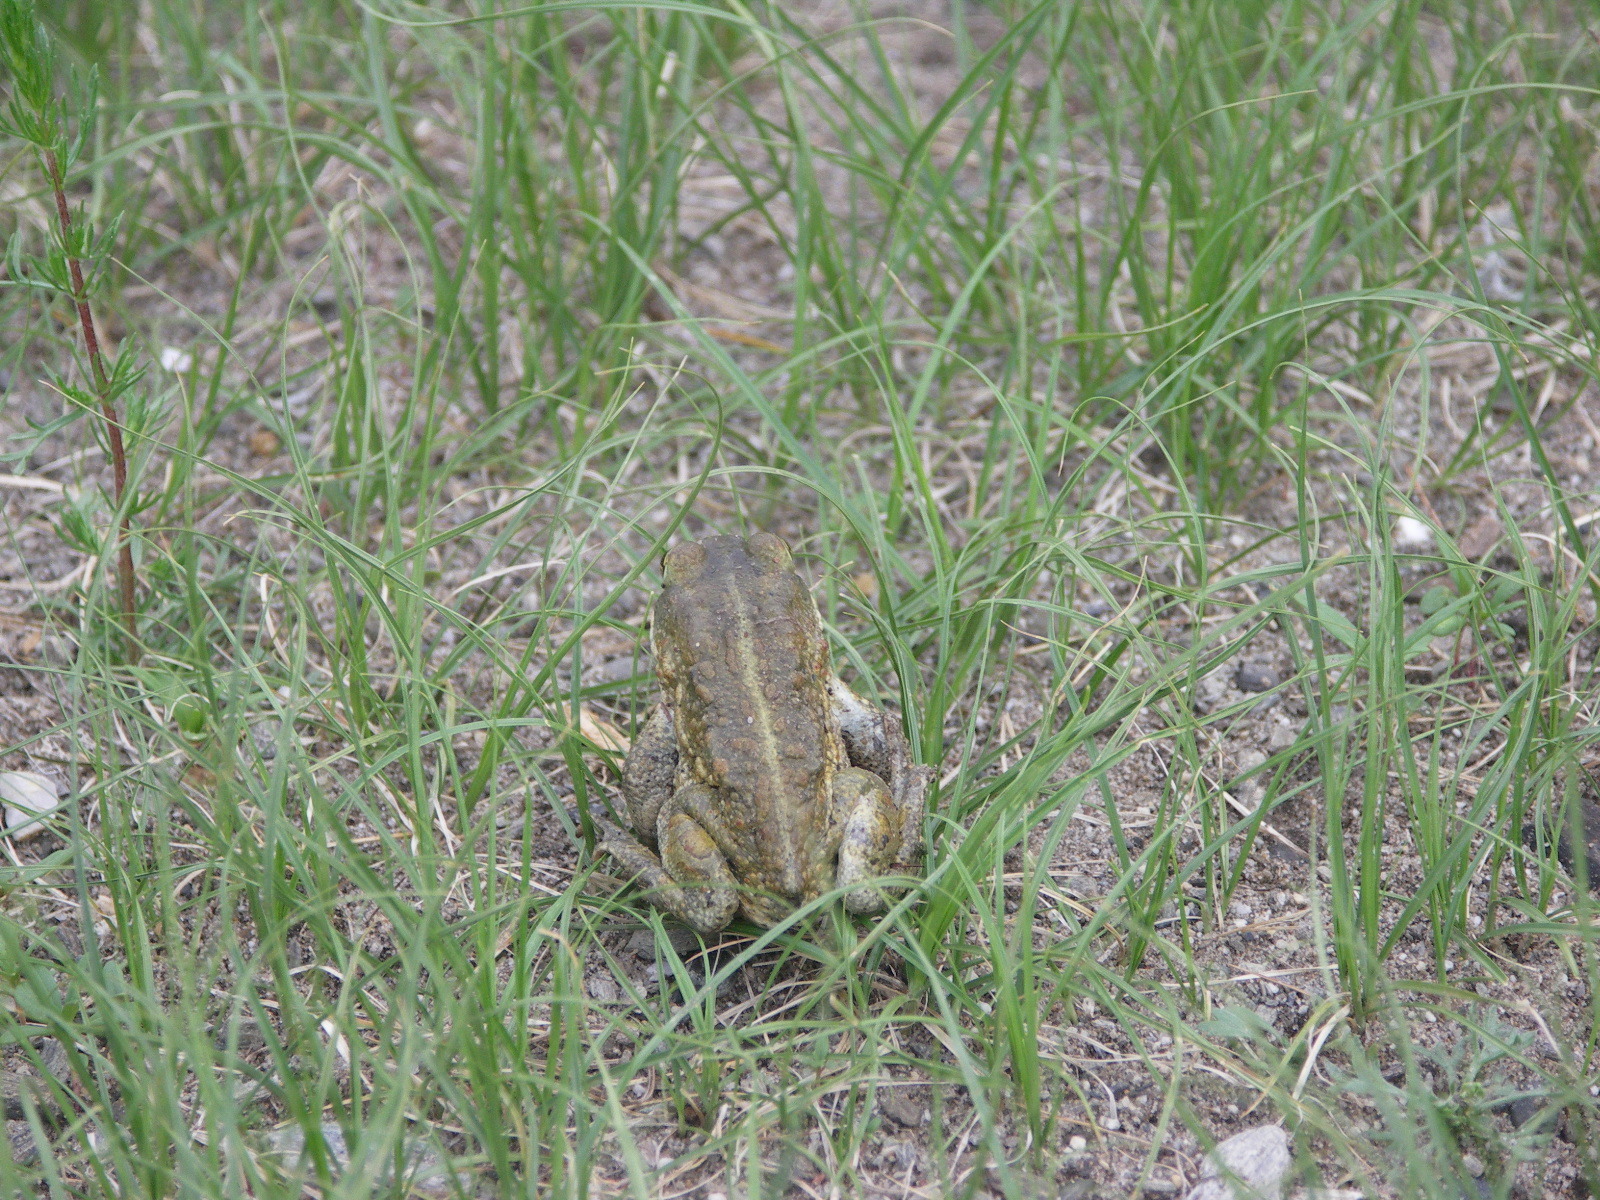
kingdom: Animalia
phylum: Chordata
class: Amphibia
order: Anura
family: Bufonidae
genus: Strauchbufo
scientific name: Strauchbufo raddei
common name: Mongolian toad
